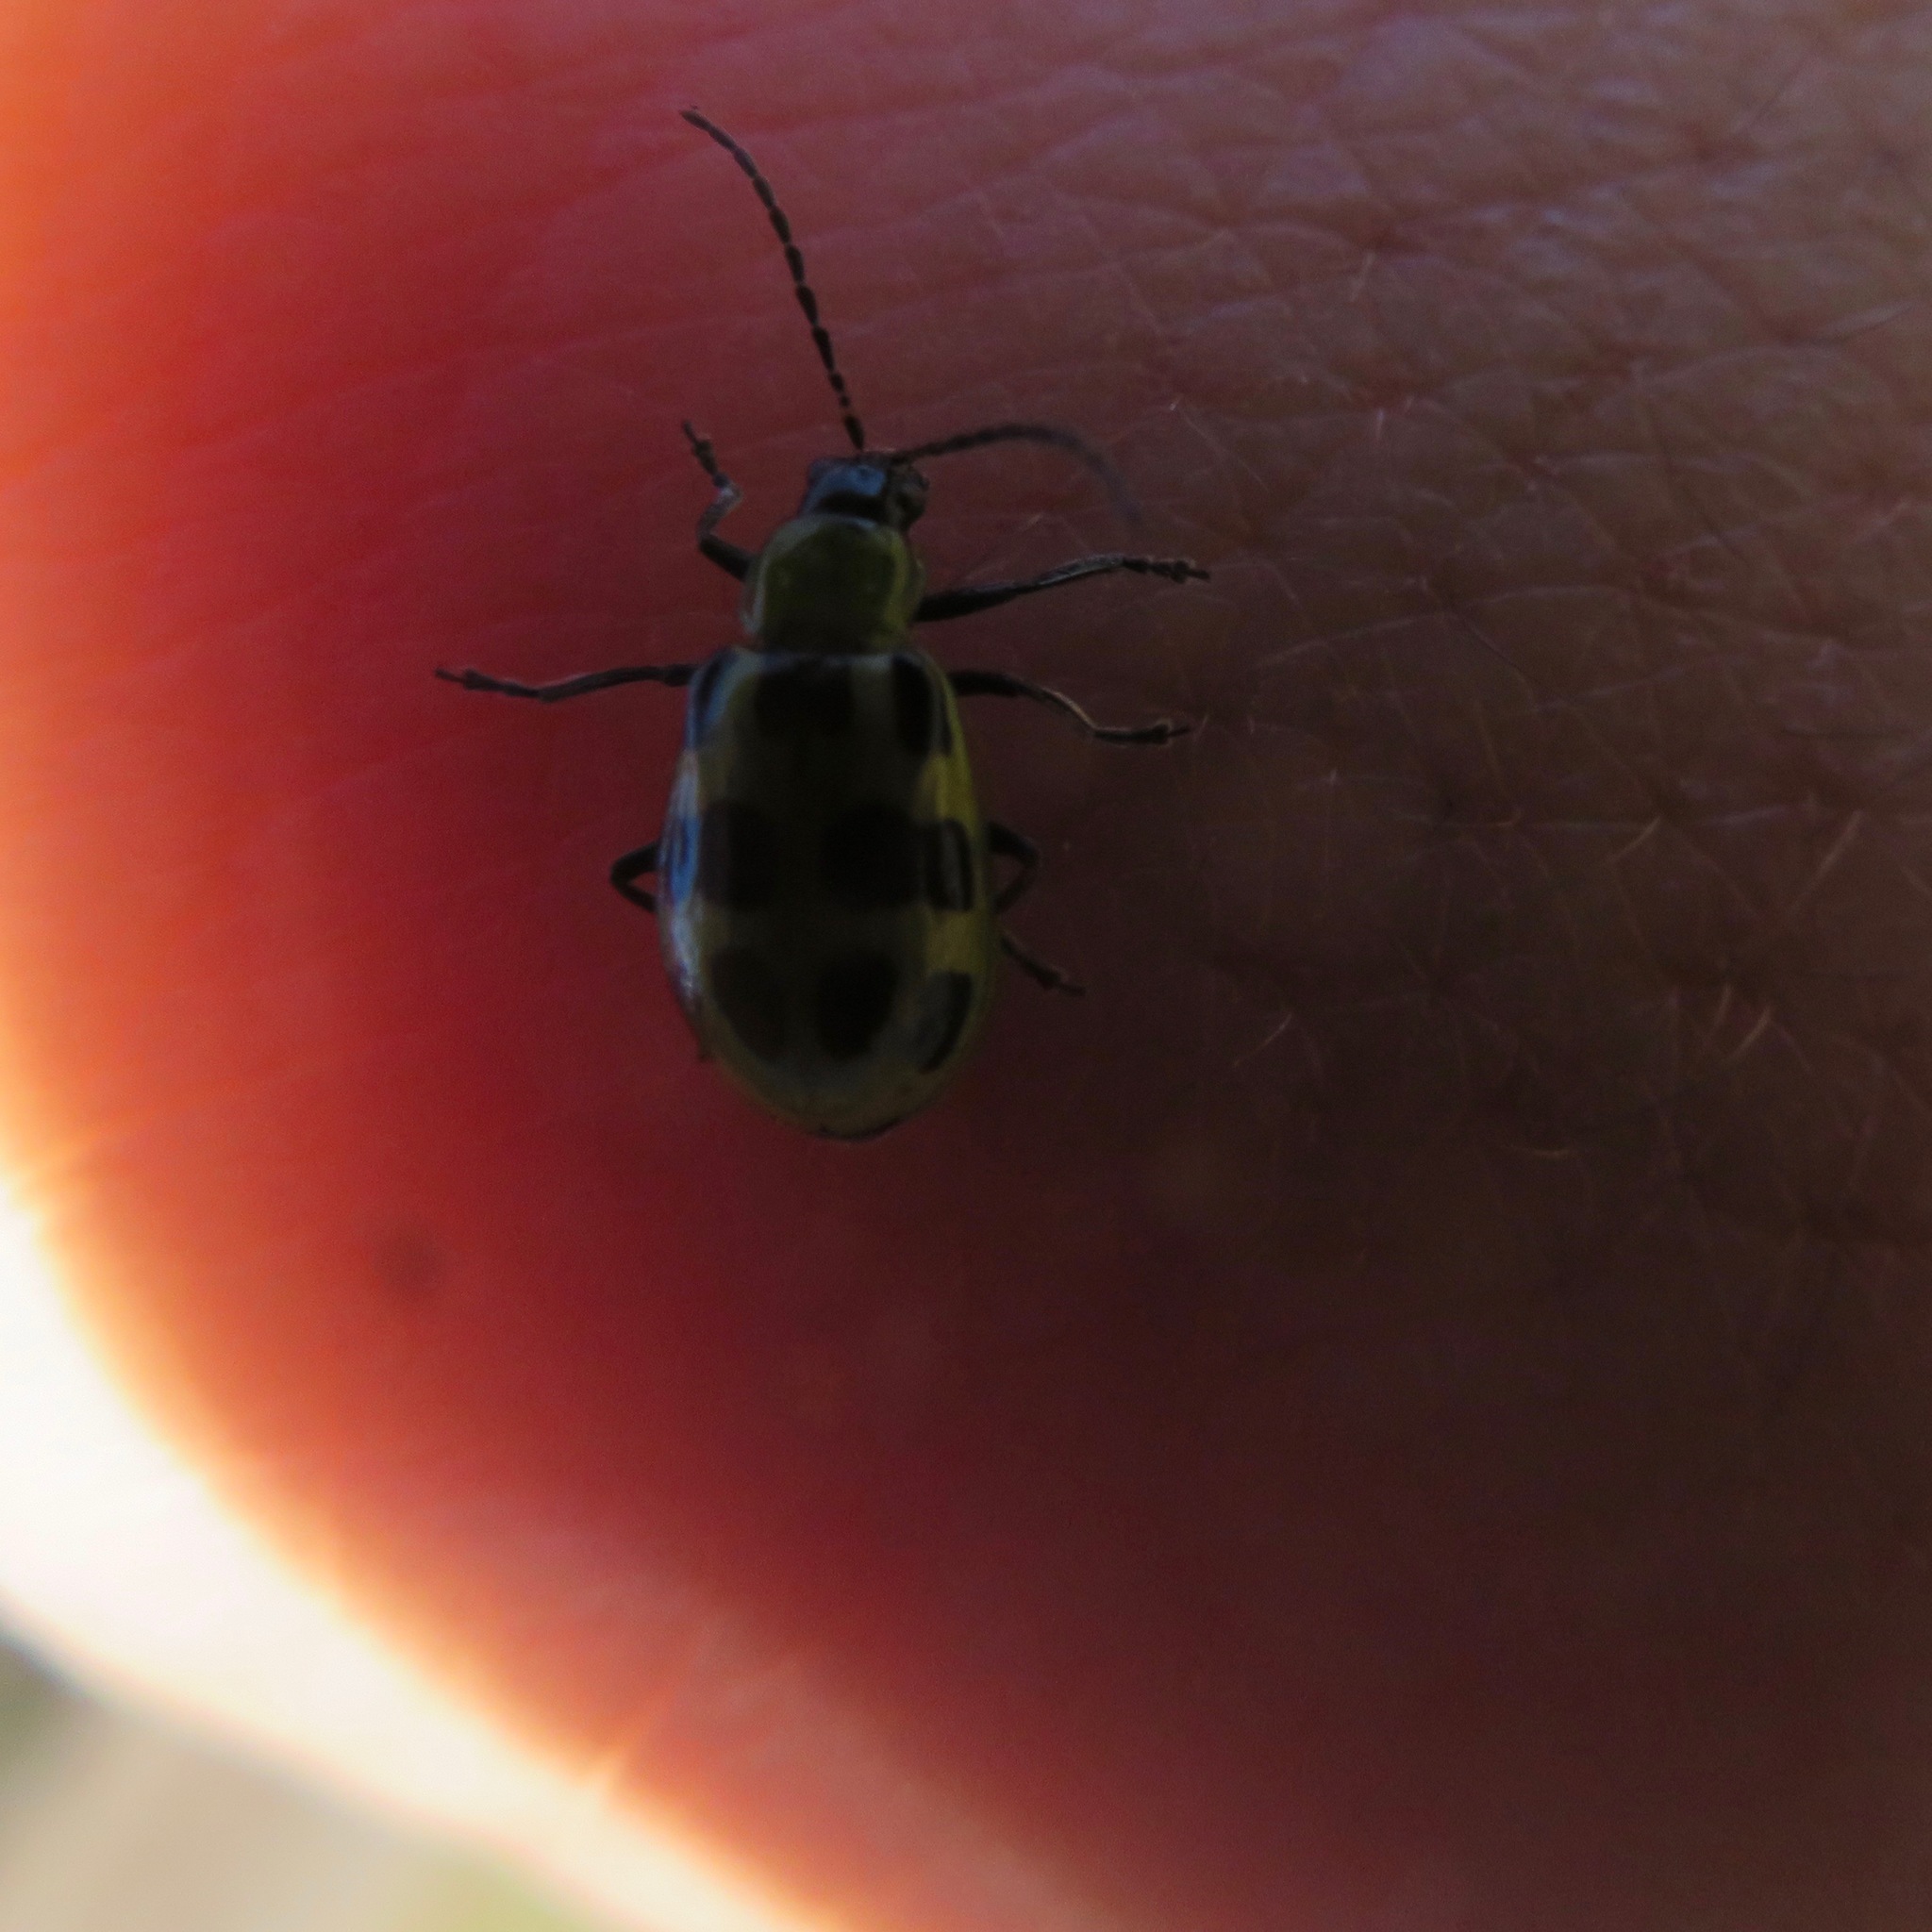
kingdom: Animalia
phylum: Arthropoda
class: Insecta
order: Coleoptera
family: Chrysomelidae
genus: Diabrotica
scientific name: Diabrotica undecimpunctata
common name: Spotted cucumber beetle
